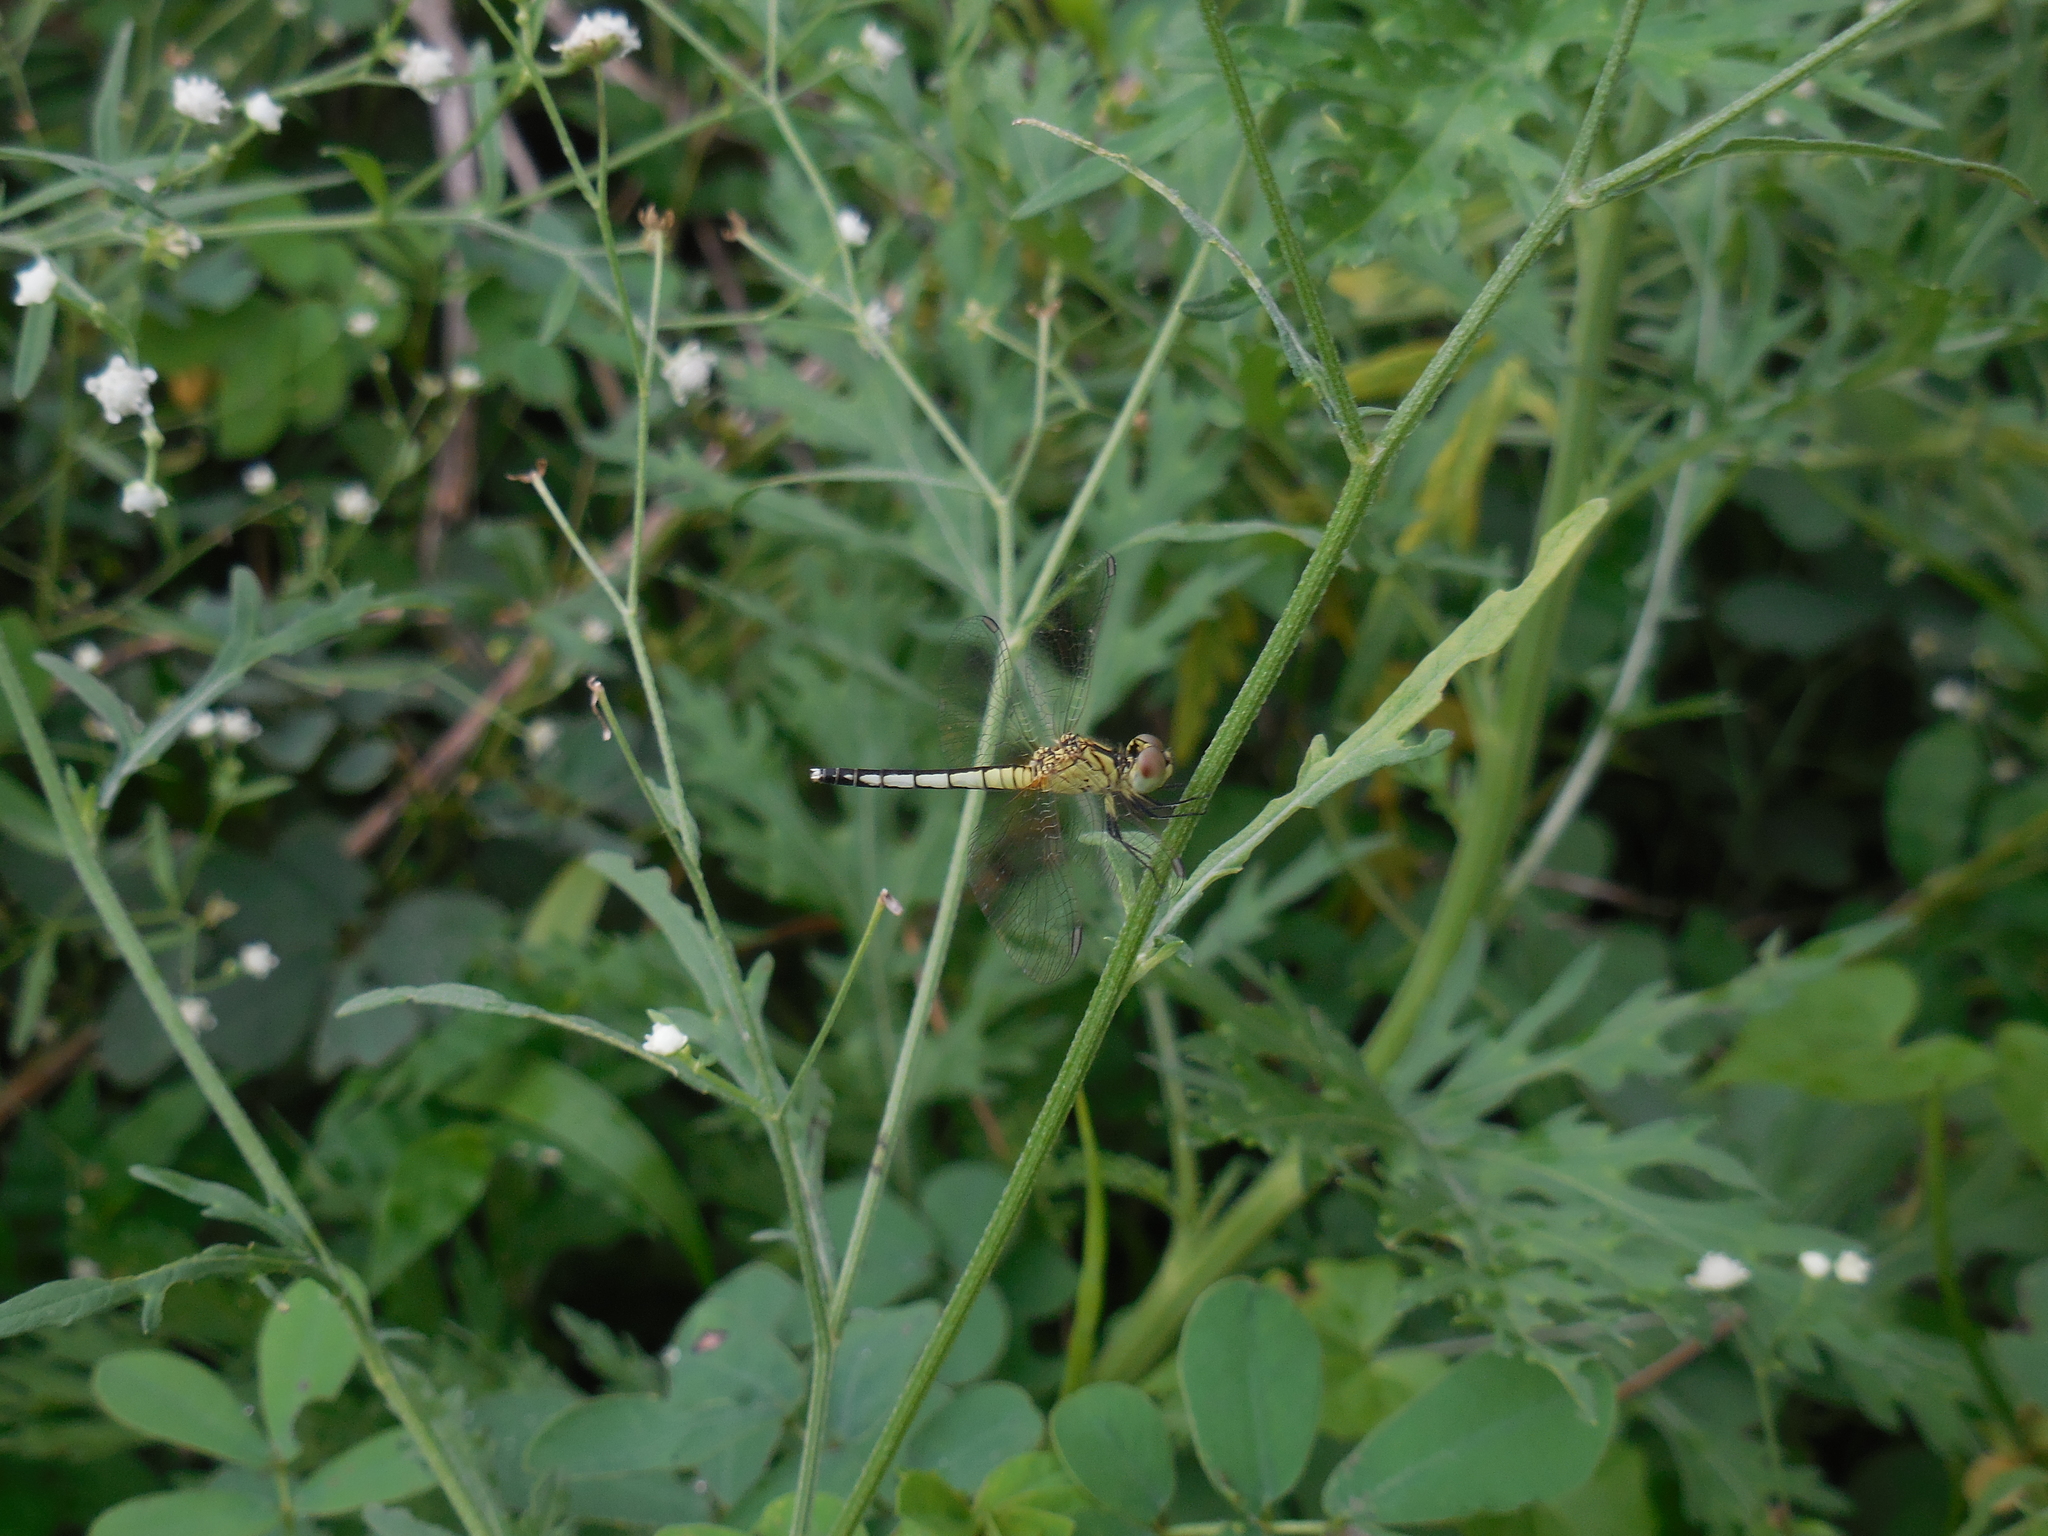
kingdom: Animalia
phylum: Arthropoda
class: Insecta
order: Odonata
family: Libellulidae
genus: Diplacodes
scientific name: Diplacodes nebulosa
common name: Black-tipped percher
